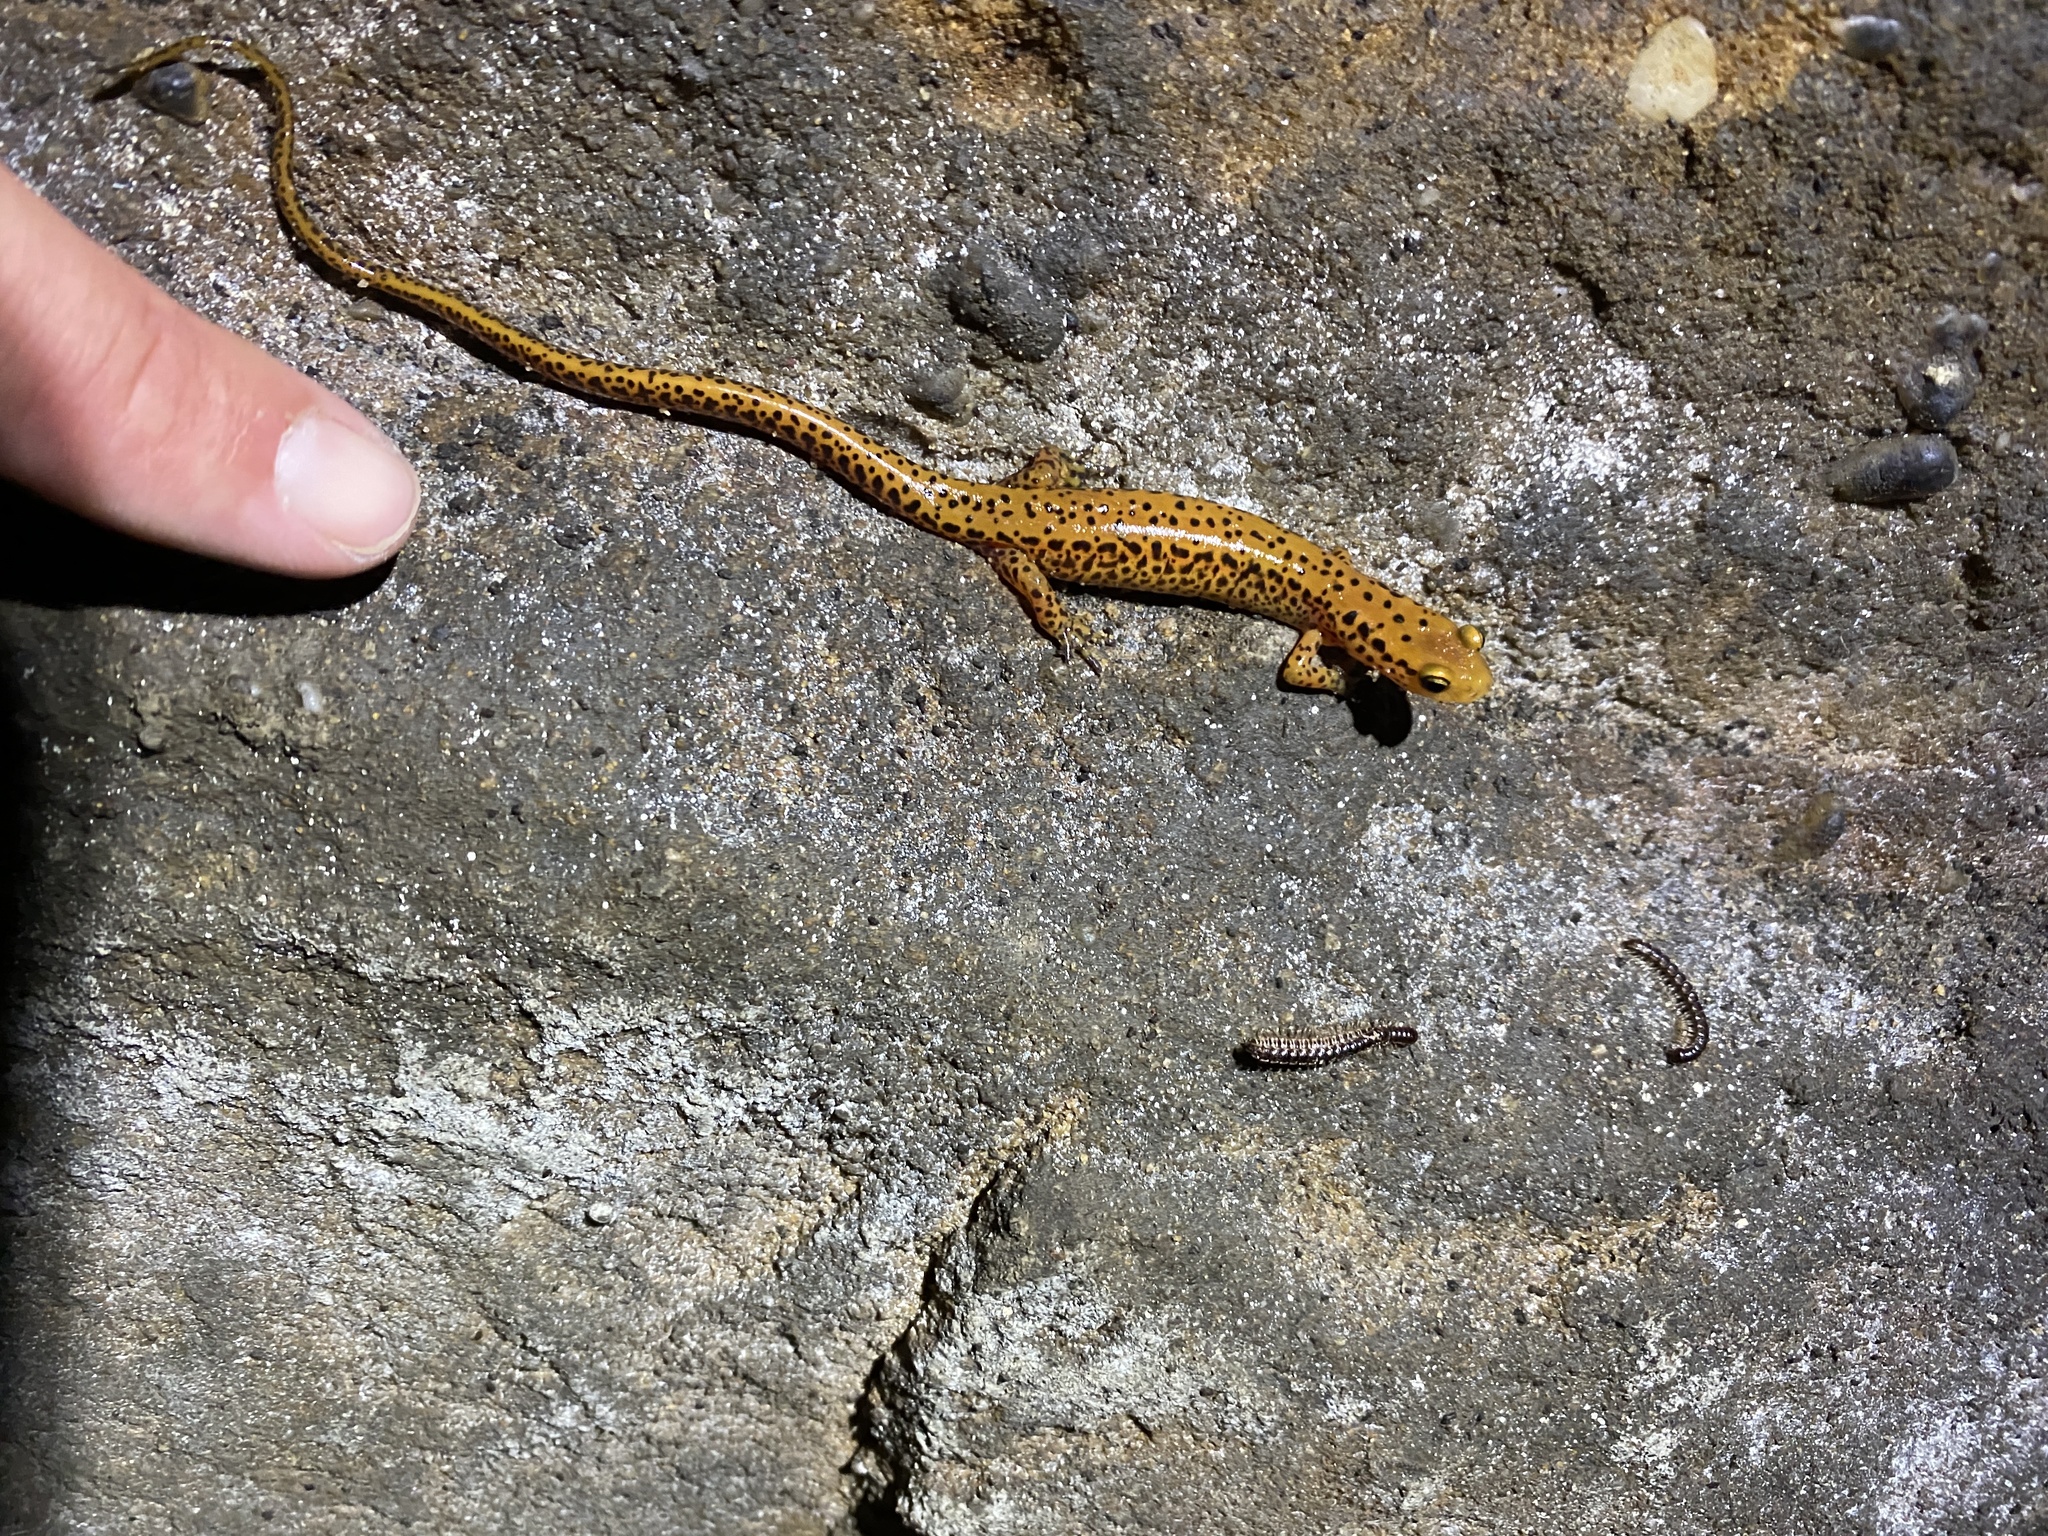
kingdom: Animalia
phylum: Chordata
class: Amphibia
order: Caudata
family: Plethodontidae
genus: Eurycea
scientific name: Eurycea longicauda
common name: Long-tailed salamander
